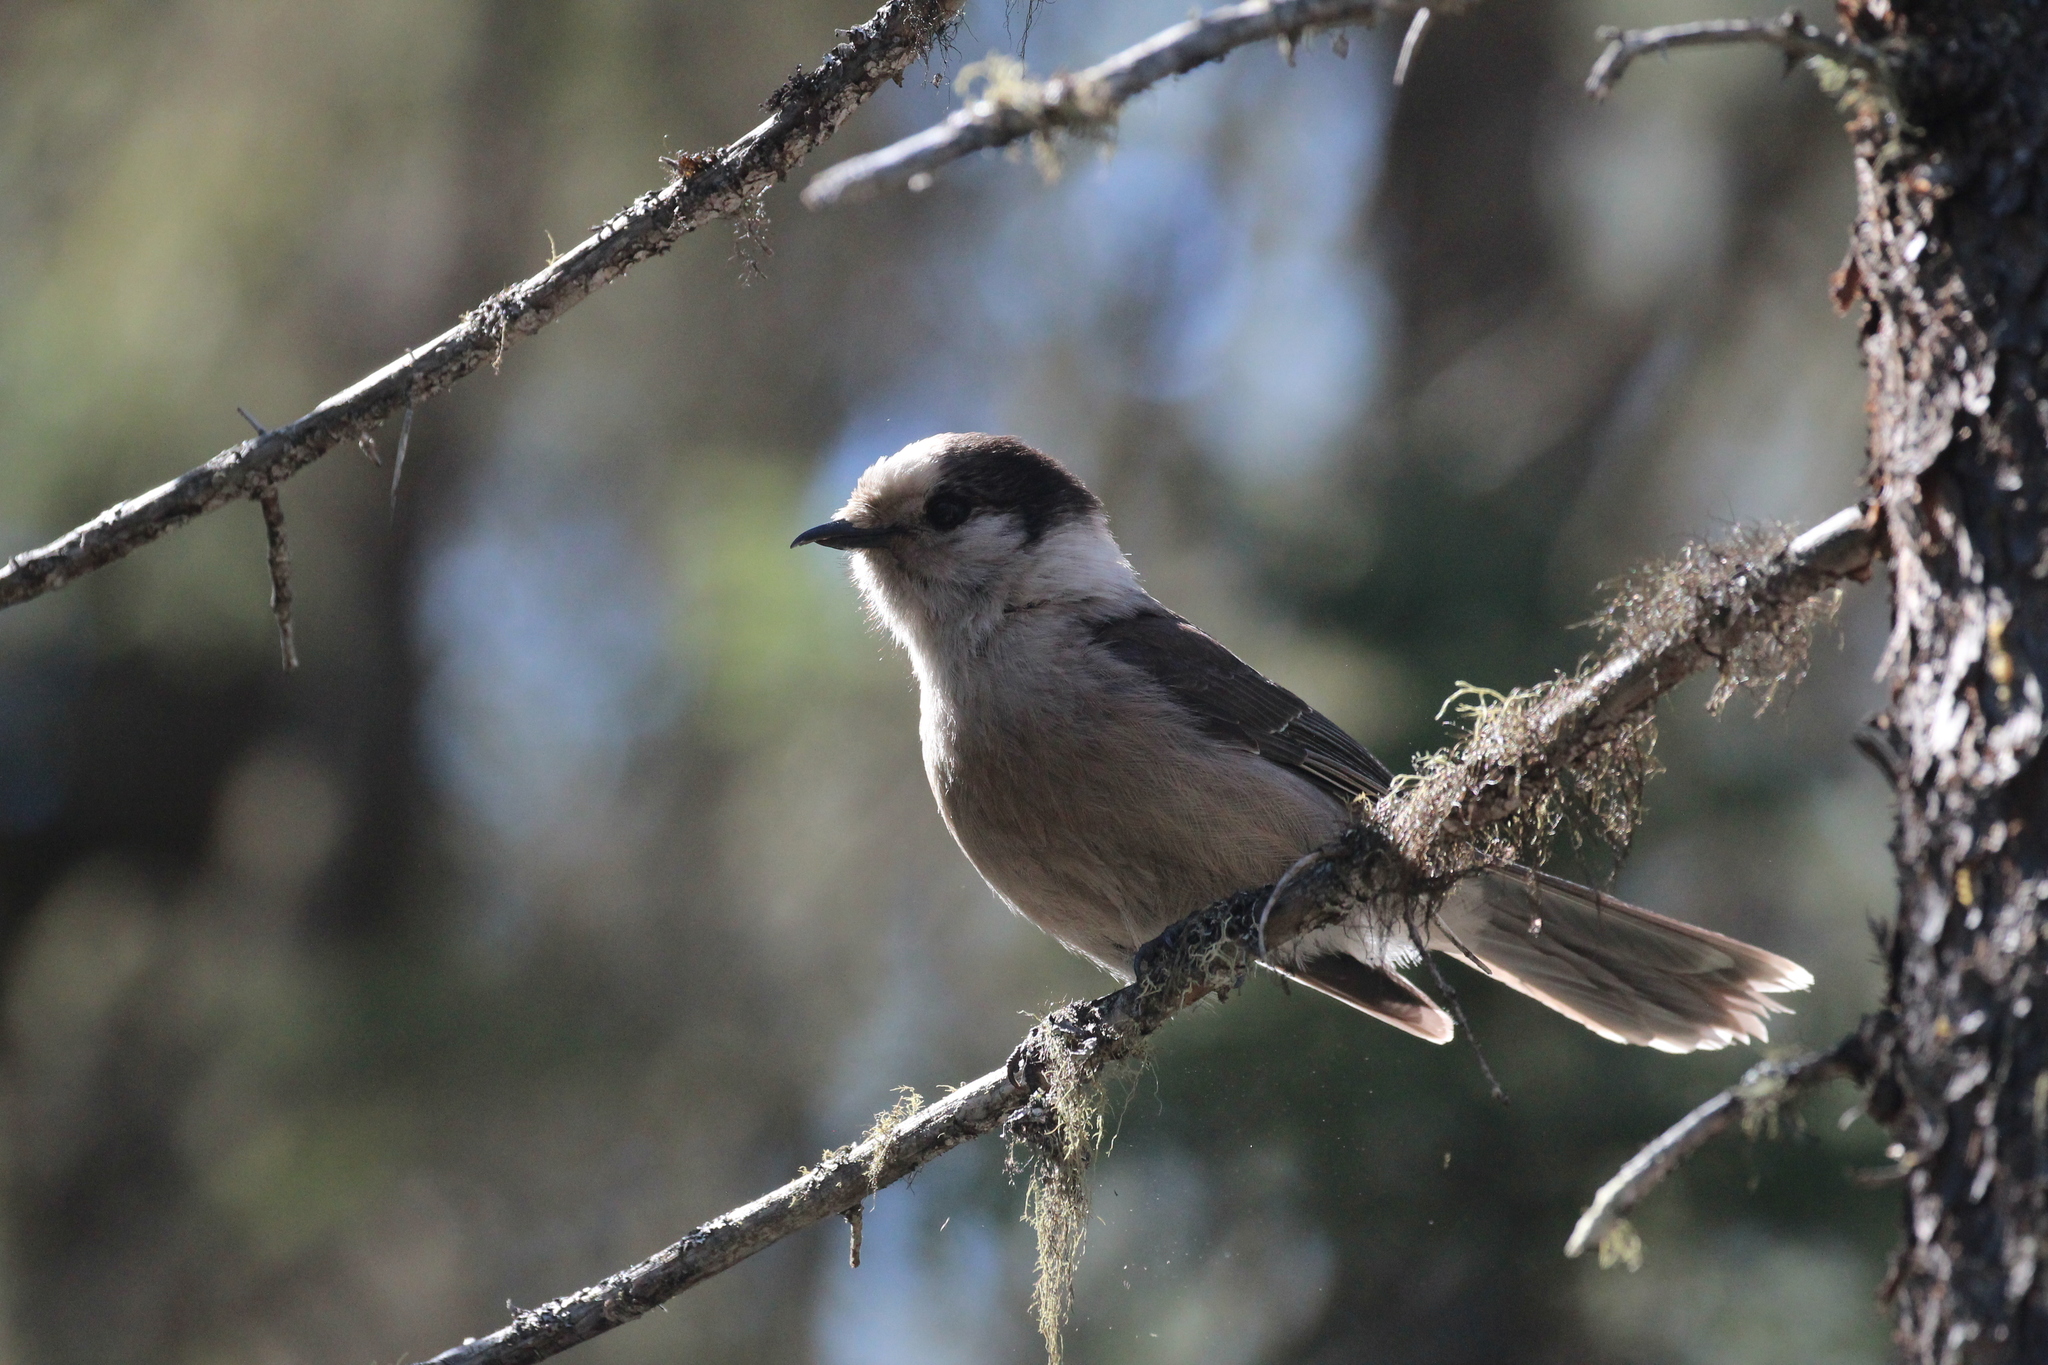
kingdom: Animalia
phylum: Chordata
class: Aves
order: Passeriformes
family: Corvidae
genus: Perisoreus
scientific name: Perisoreus canadensis
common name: Gray jay
